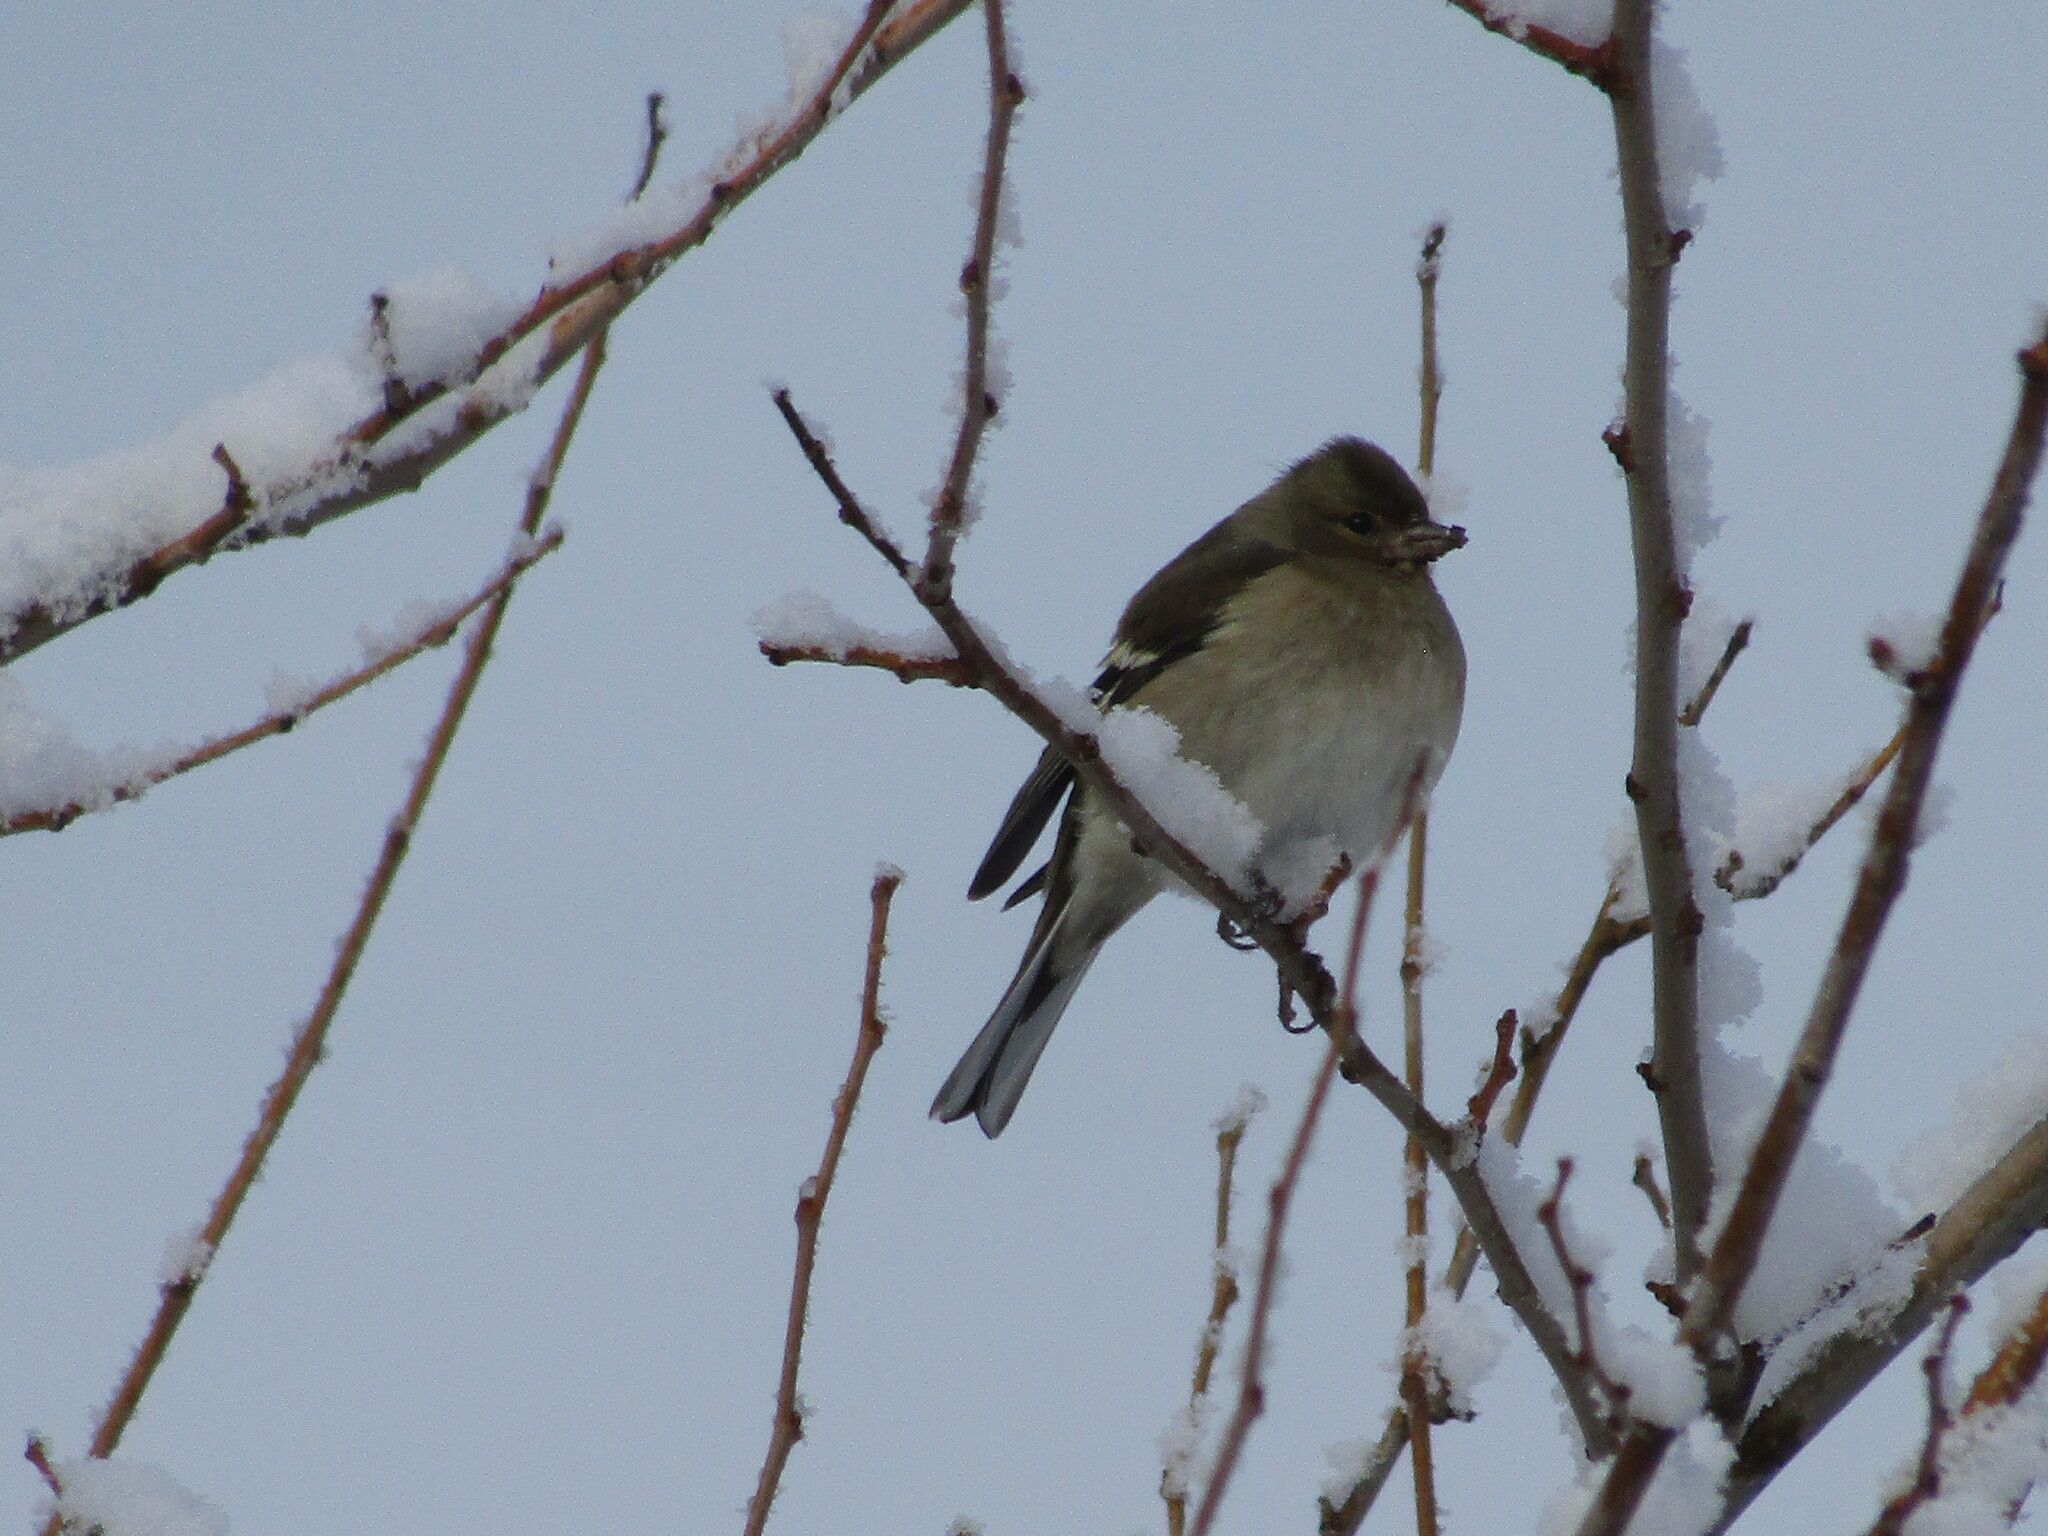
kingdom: Animalia
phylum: Chordata
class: Aves
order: Passeriformes
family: Fringillidae
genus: Fringilla
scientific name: Fringilla coelebs
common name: Common chaffinch
